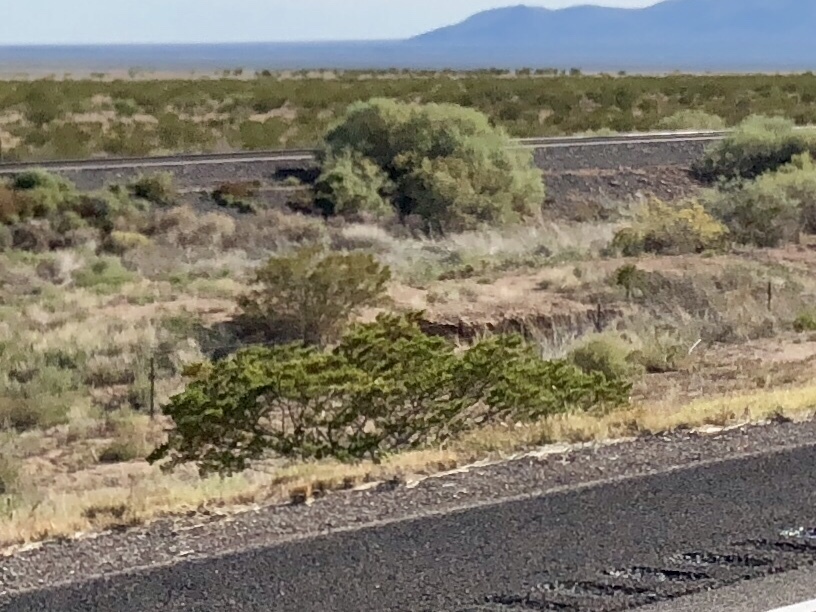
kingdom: Plantae
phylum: Tracheophyta
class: Magnoliopsida
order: Zygophyllales
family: Zygophyllaceae
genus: Larrea
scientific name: Larrea tridentata
